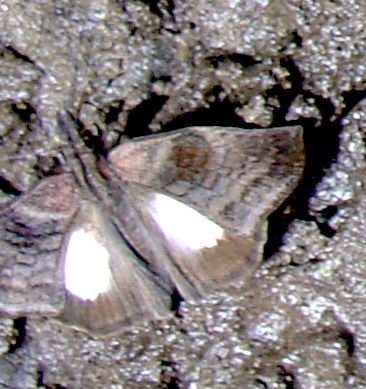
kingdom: Animalia
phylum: Arthropoda
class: Insecta
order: Lepidoptera
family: Hesperiidae
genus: Theagenes
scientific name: Theagenes albiplaga
